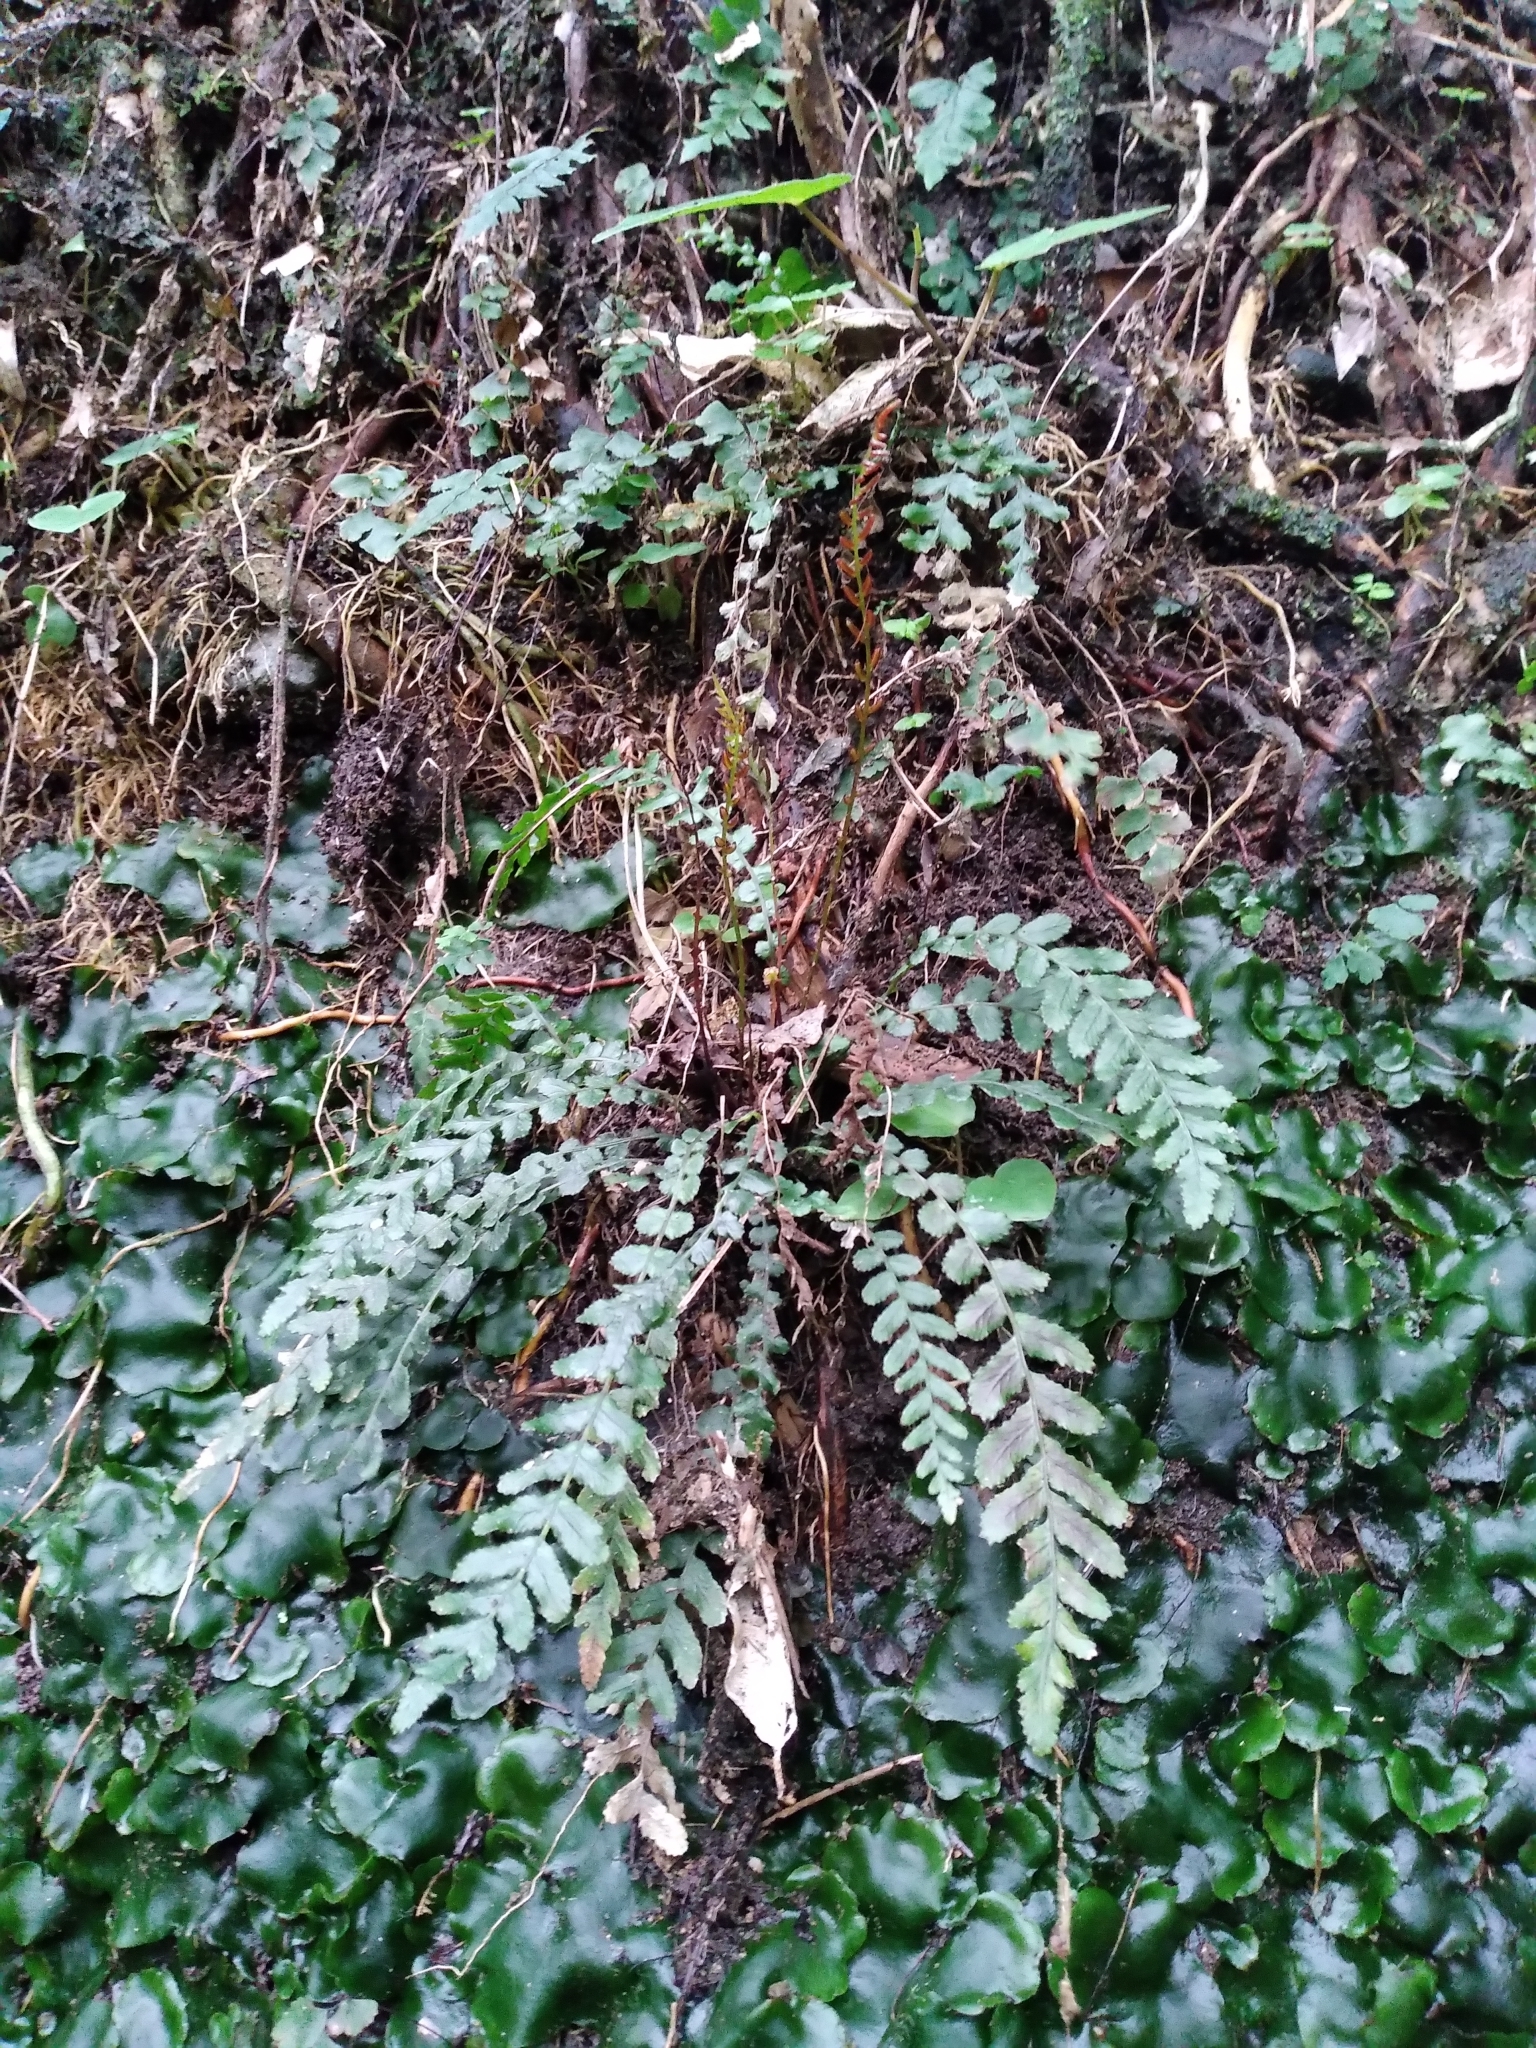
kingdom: Plantae
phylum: Tracheophyta
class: Polypodiopsida
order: Polypodiales
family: Blechnaceae
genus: Austroblechnum
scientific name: Austroblechnum membranaceum
